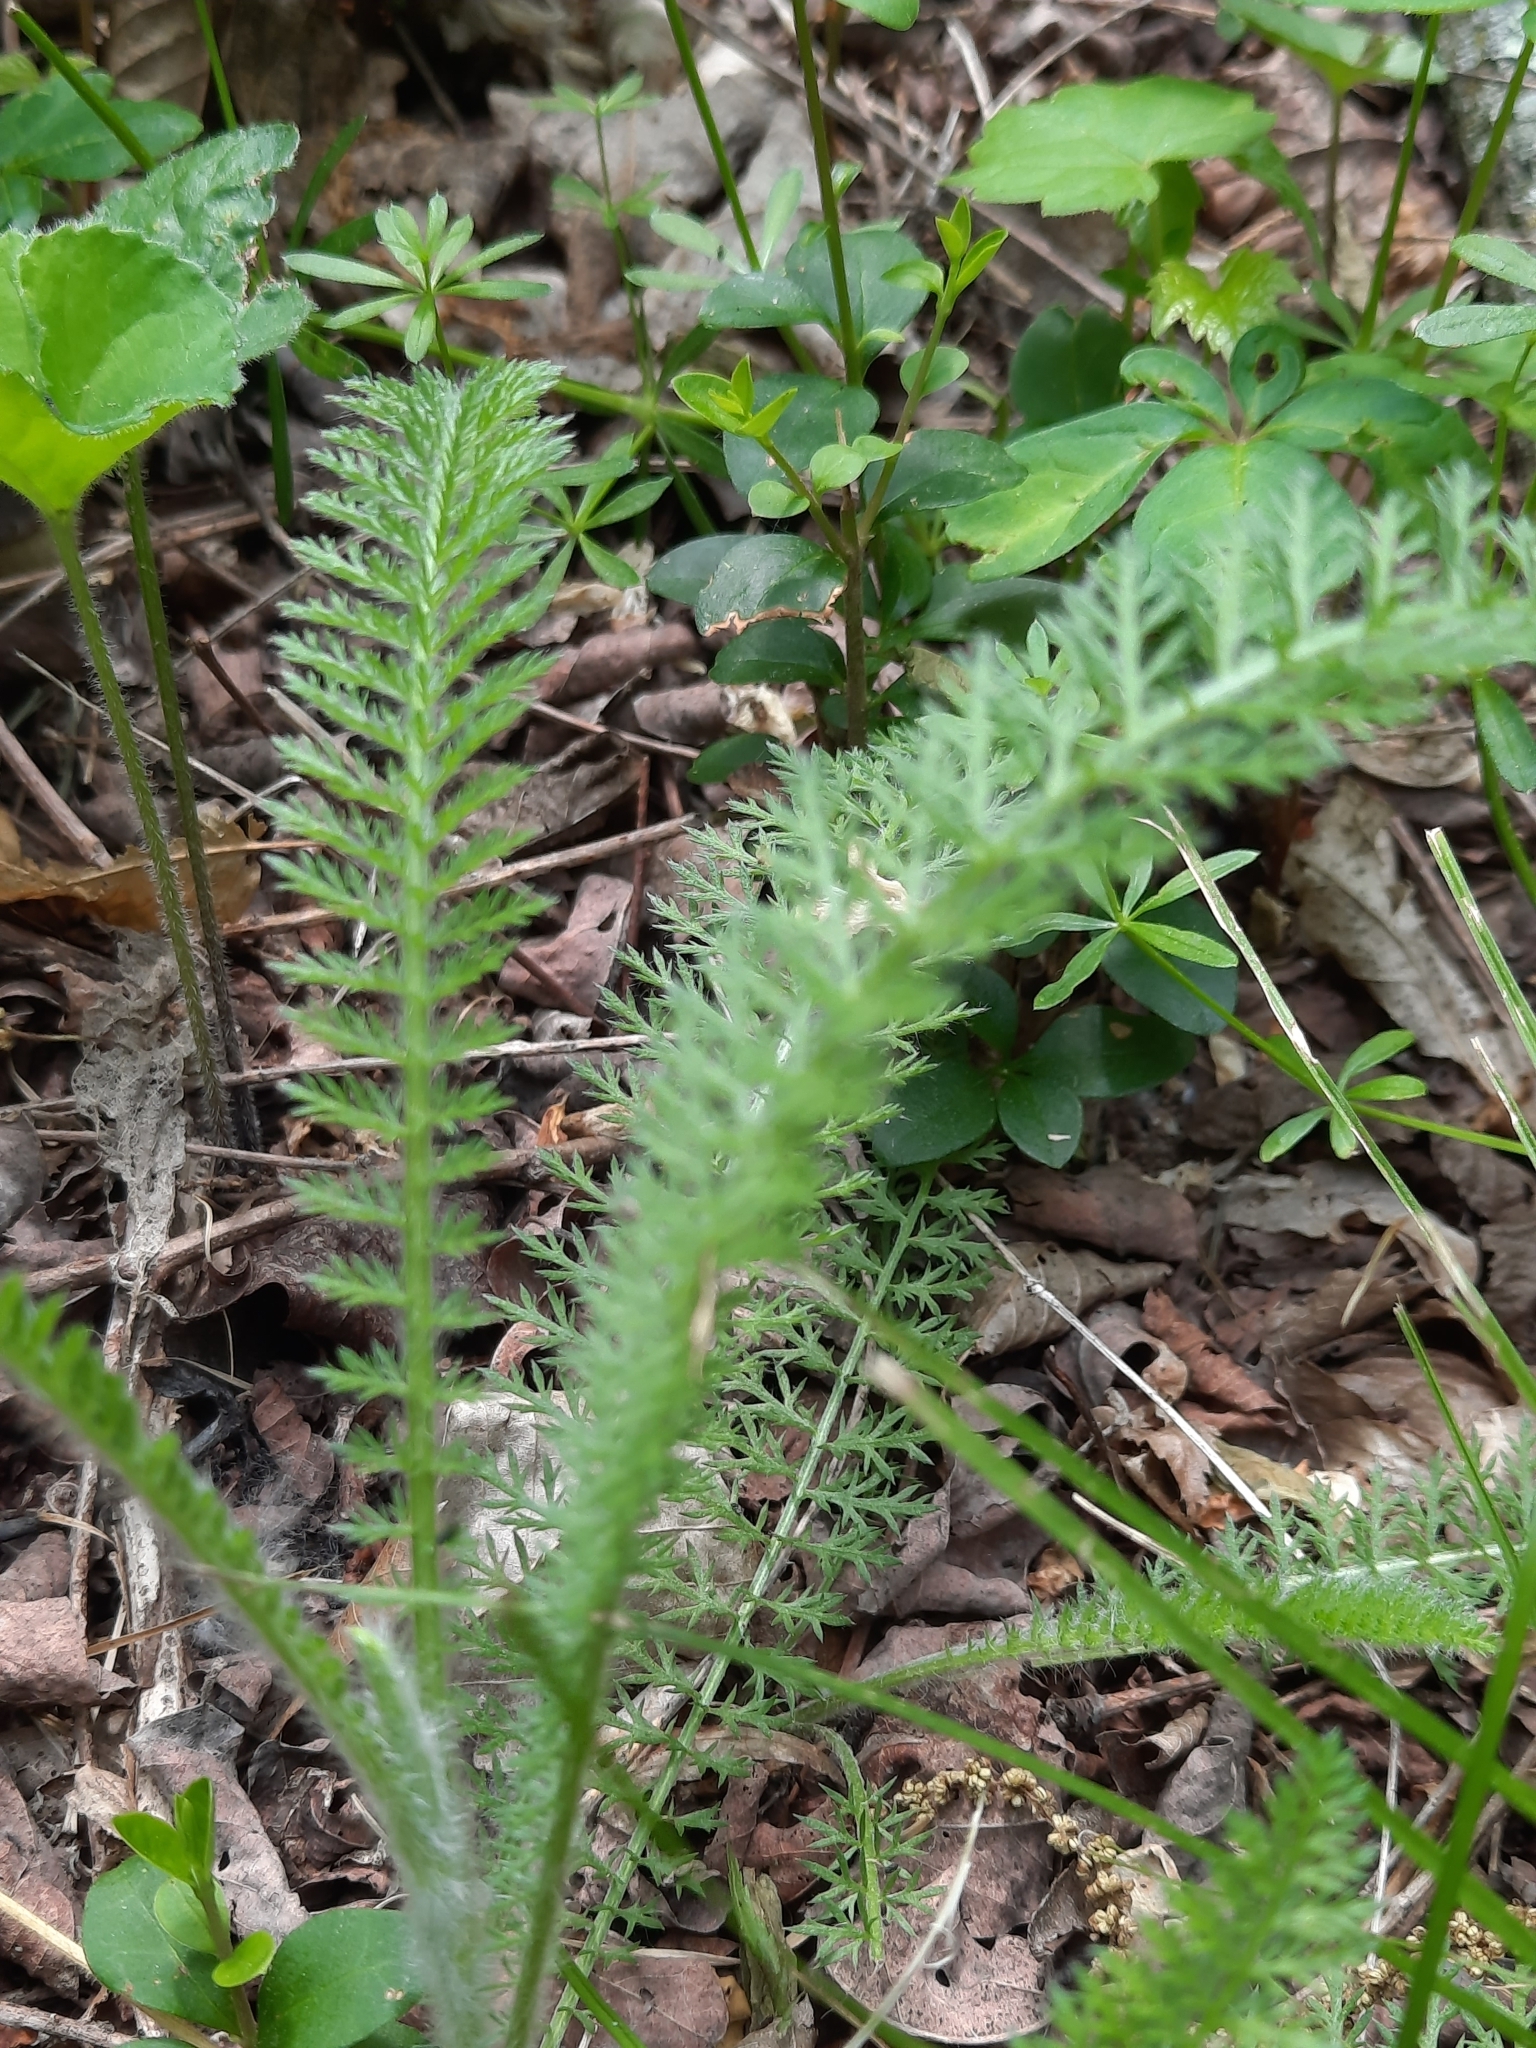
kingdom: Plantae
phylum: Tracheophyta
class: Magnoliopsida
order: Asterales
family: Asteraceae
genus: Achillea
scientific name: Achillea millefolium
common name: Yarrow
